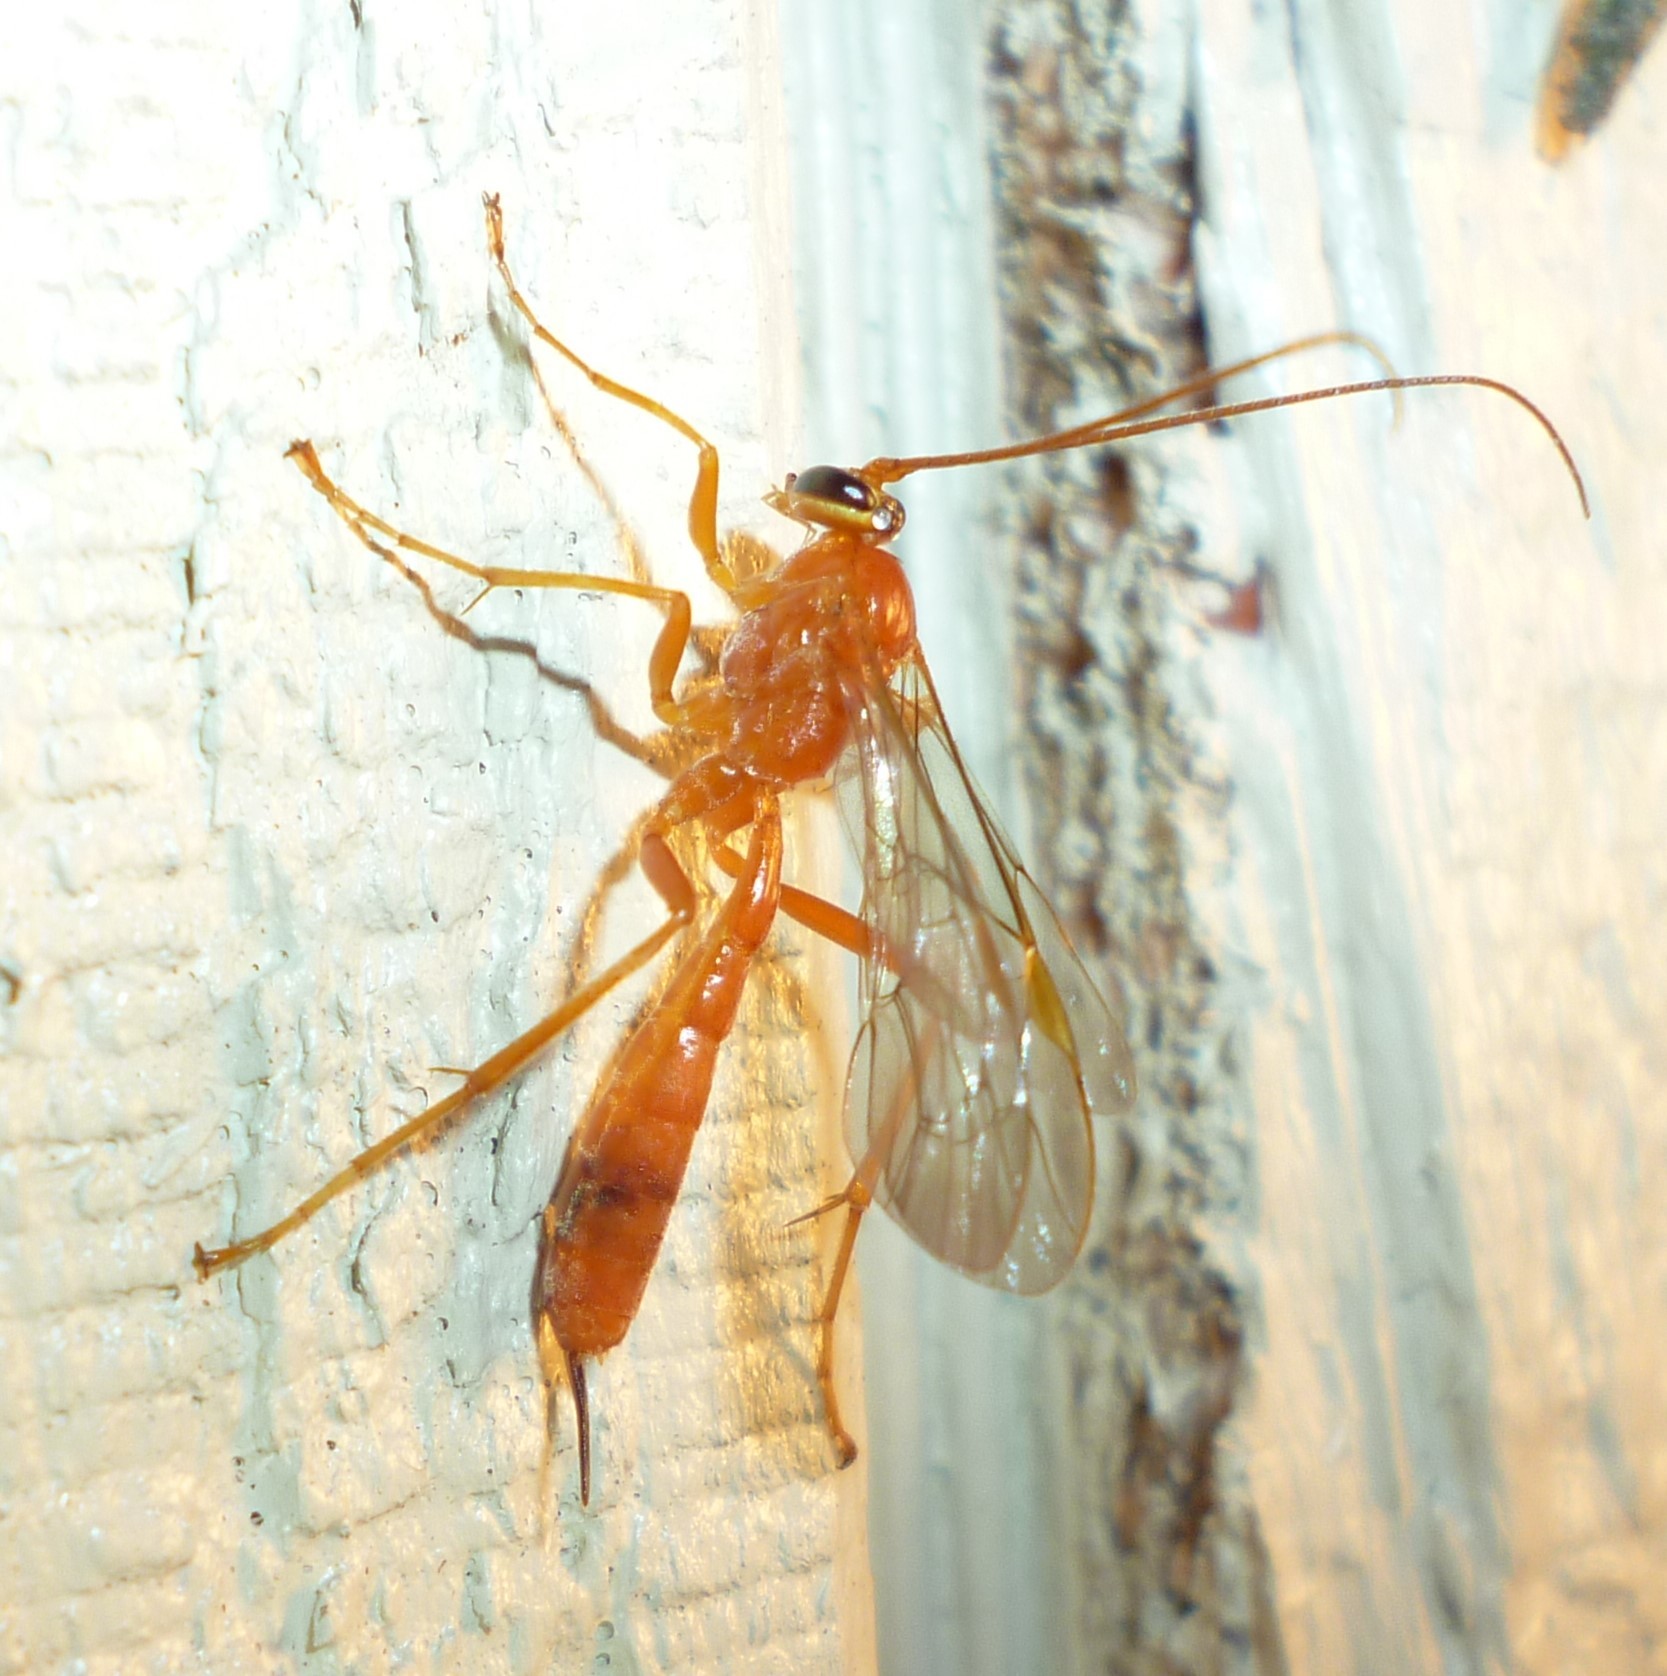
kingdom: Animalia
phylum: Arthropoda
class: Insecta
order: Hymenoptera
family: Ichneumonidae
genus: Netelia
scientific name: Netelia
